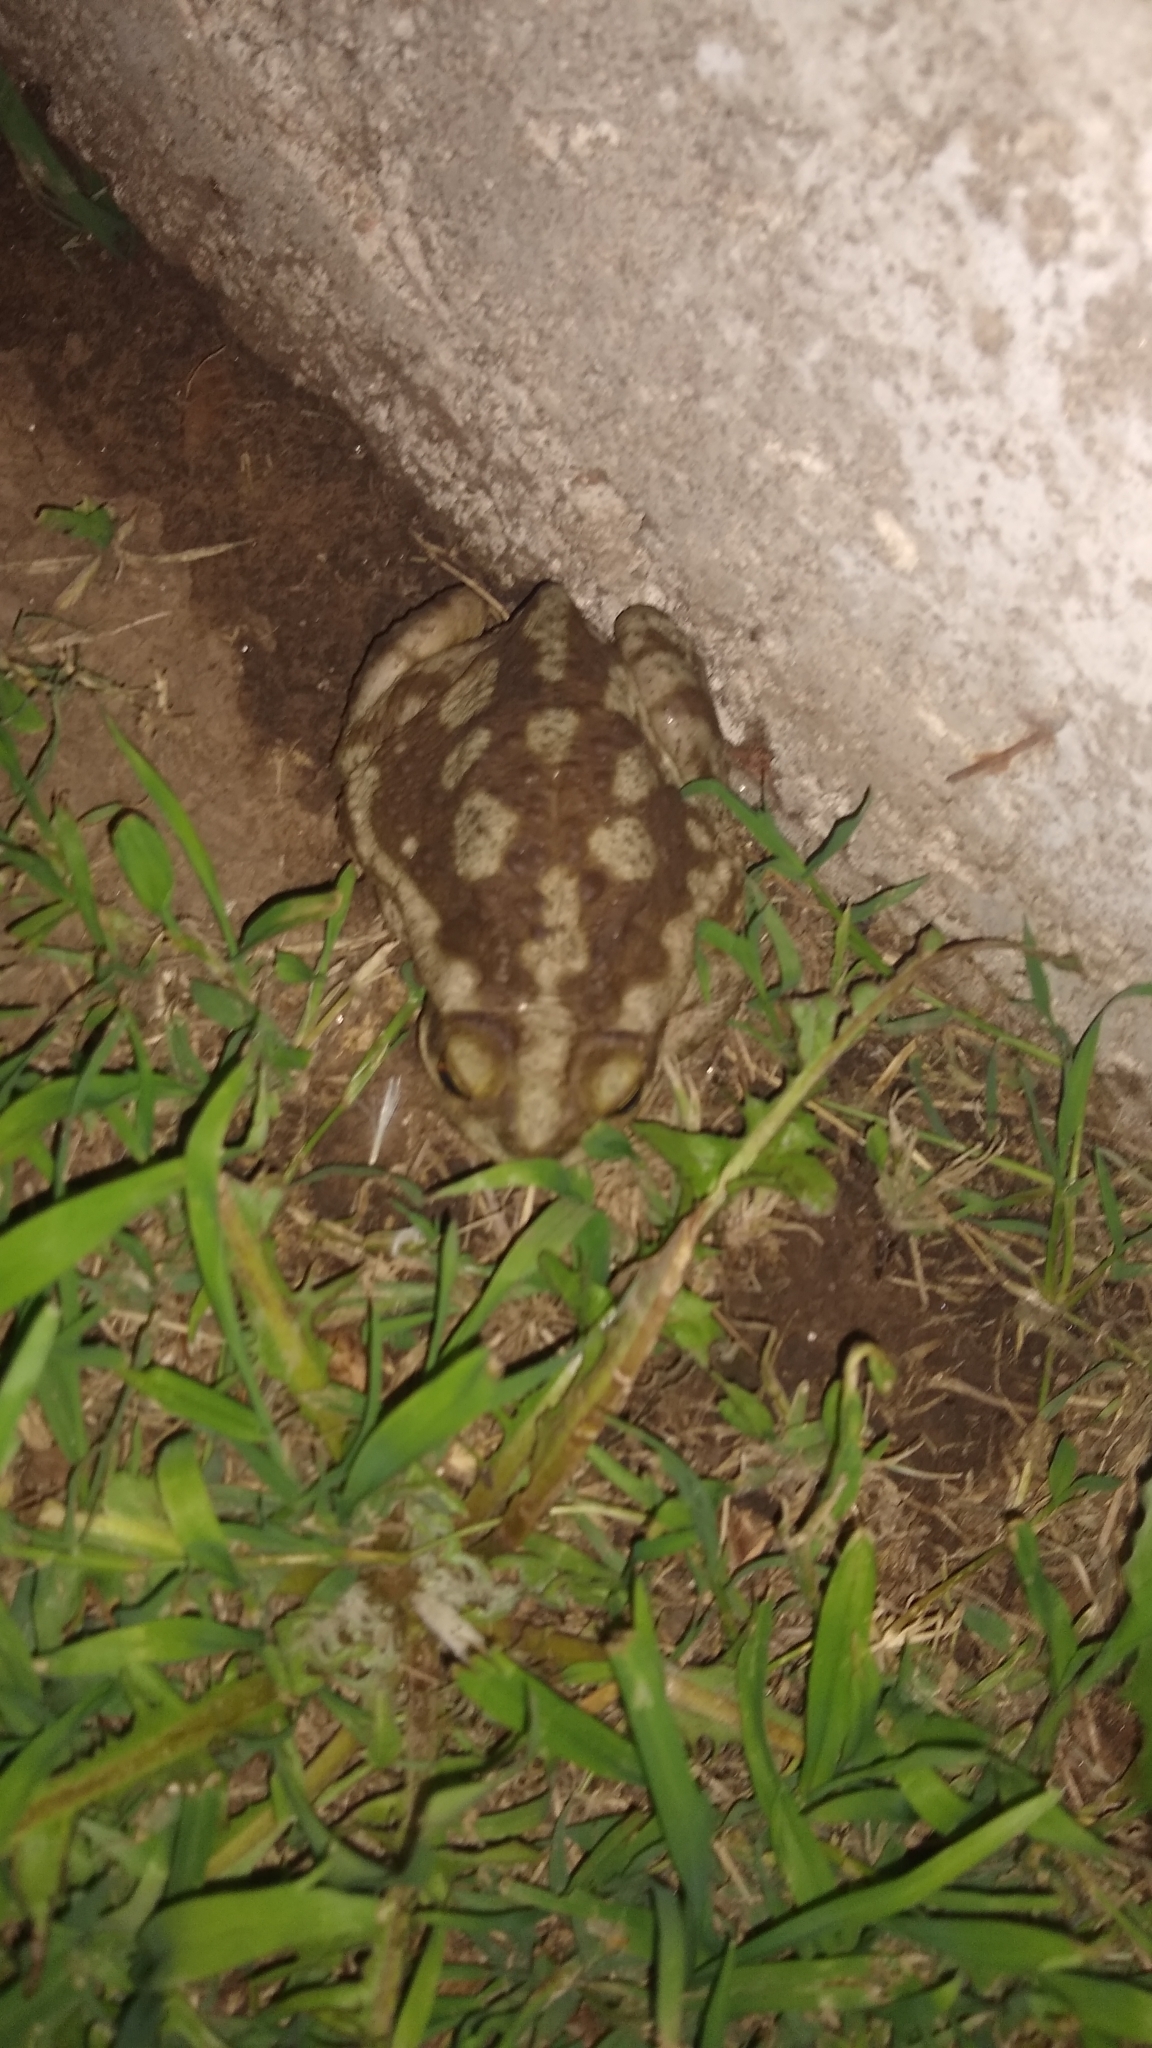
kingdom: Animalia
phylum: Chordata
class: Amphibia
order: Anura
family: Bufonidae
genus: Rhinella
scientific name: Rhinella arenarum
